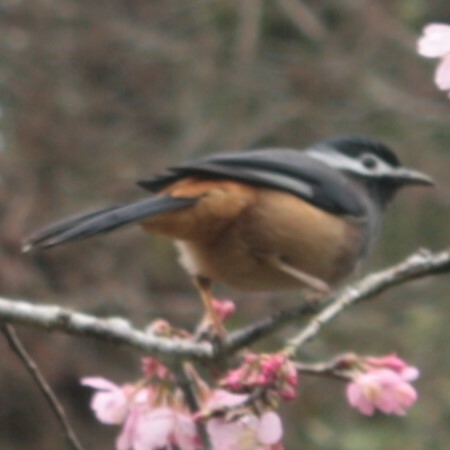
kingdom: Animalia
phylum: Chordata
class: Aves
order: Passeriformes
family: Leiothrichidae
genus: Heterophasia
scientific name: Heterophasia auricularis
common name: White-eared sibia
